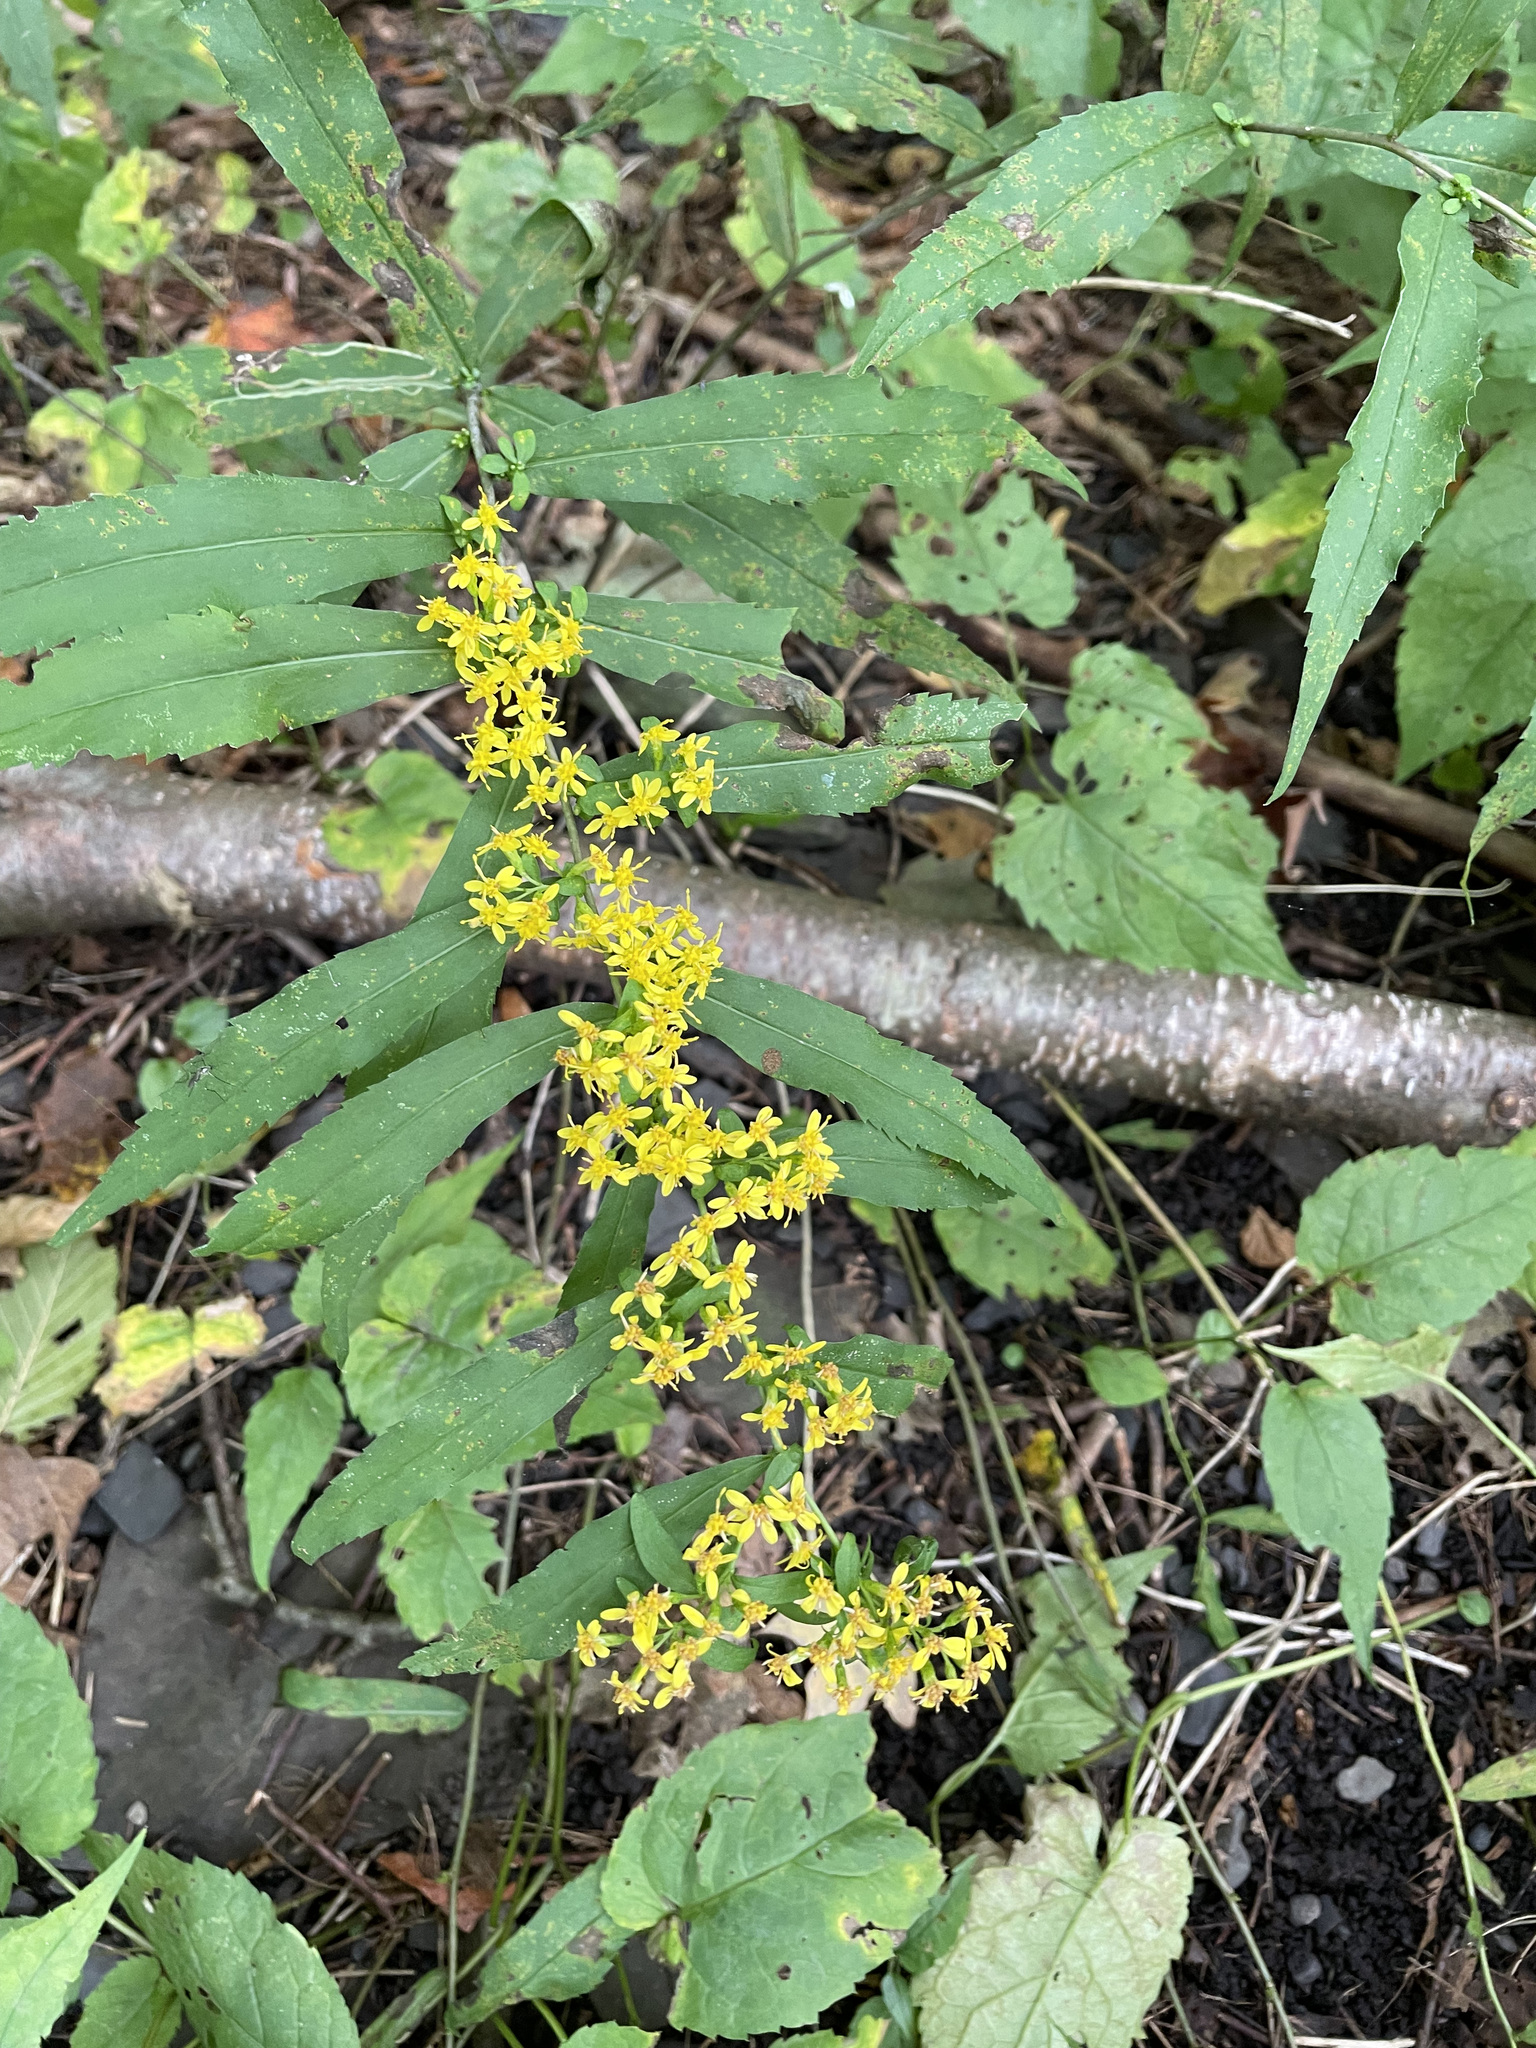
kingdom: Plantae
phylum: Tracheophyta
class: Magnoliopsida
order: Asterales
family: Asteraceae
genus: Solidago
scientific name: Solidago caesia
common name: Woodland goldenrod
